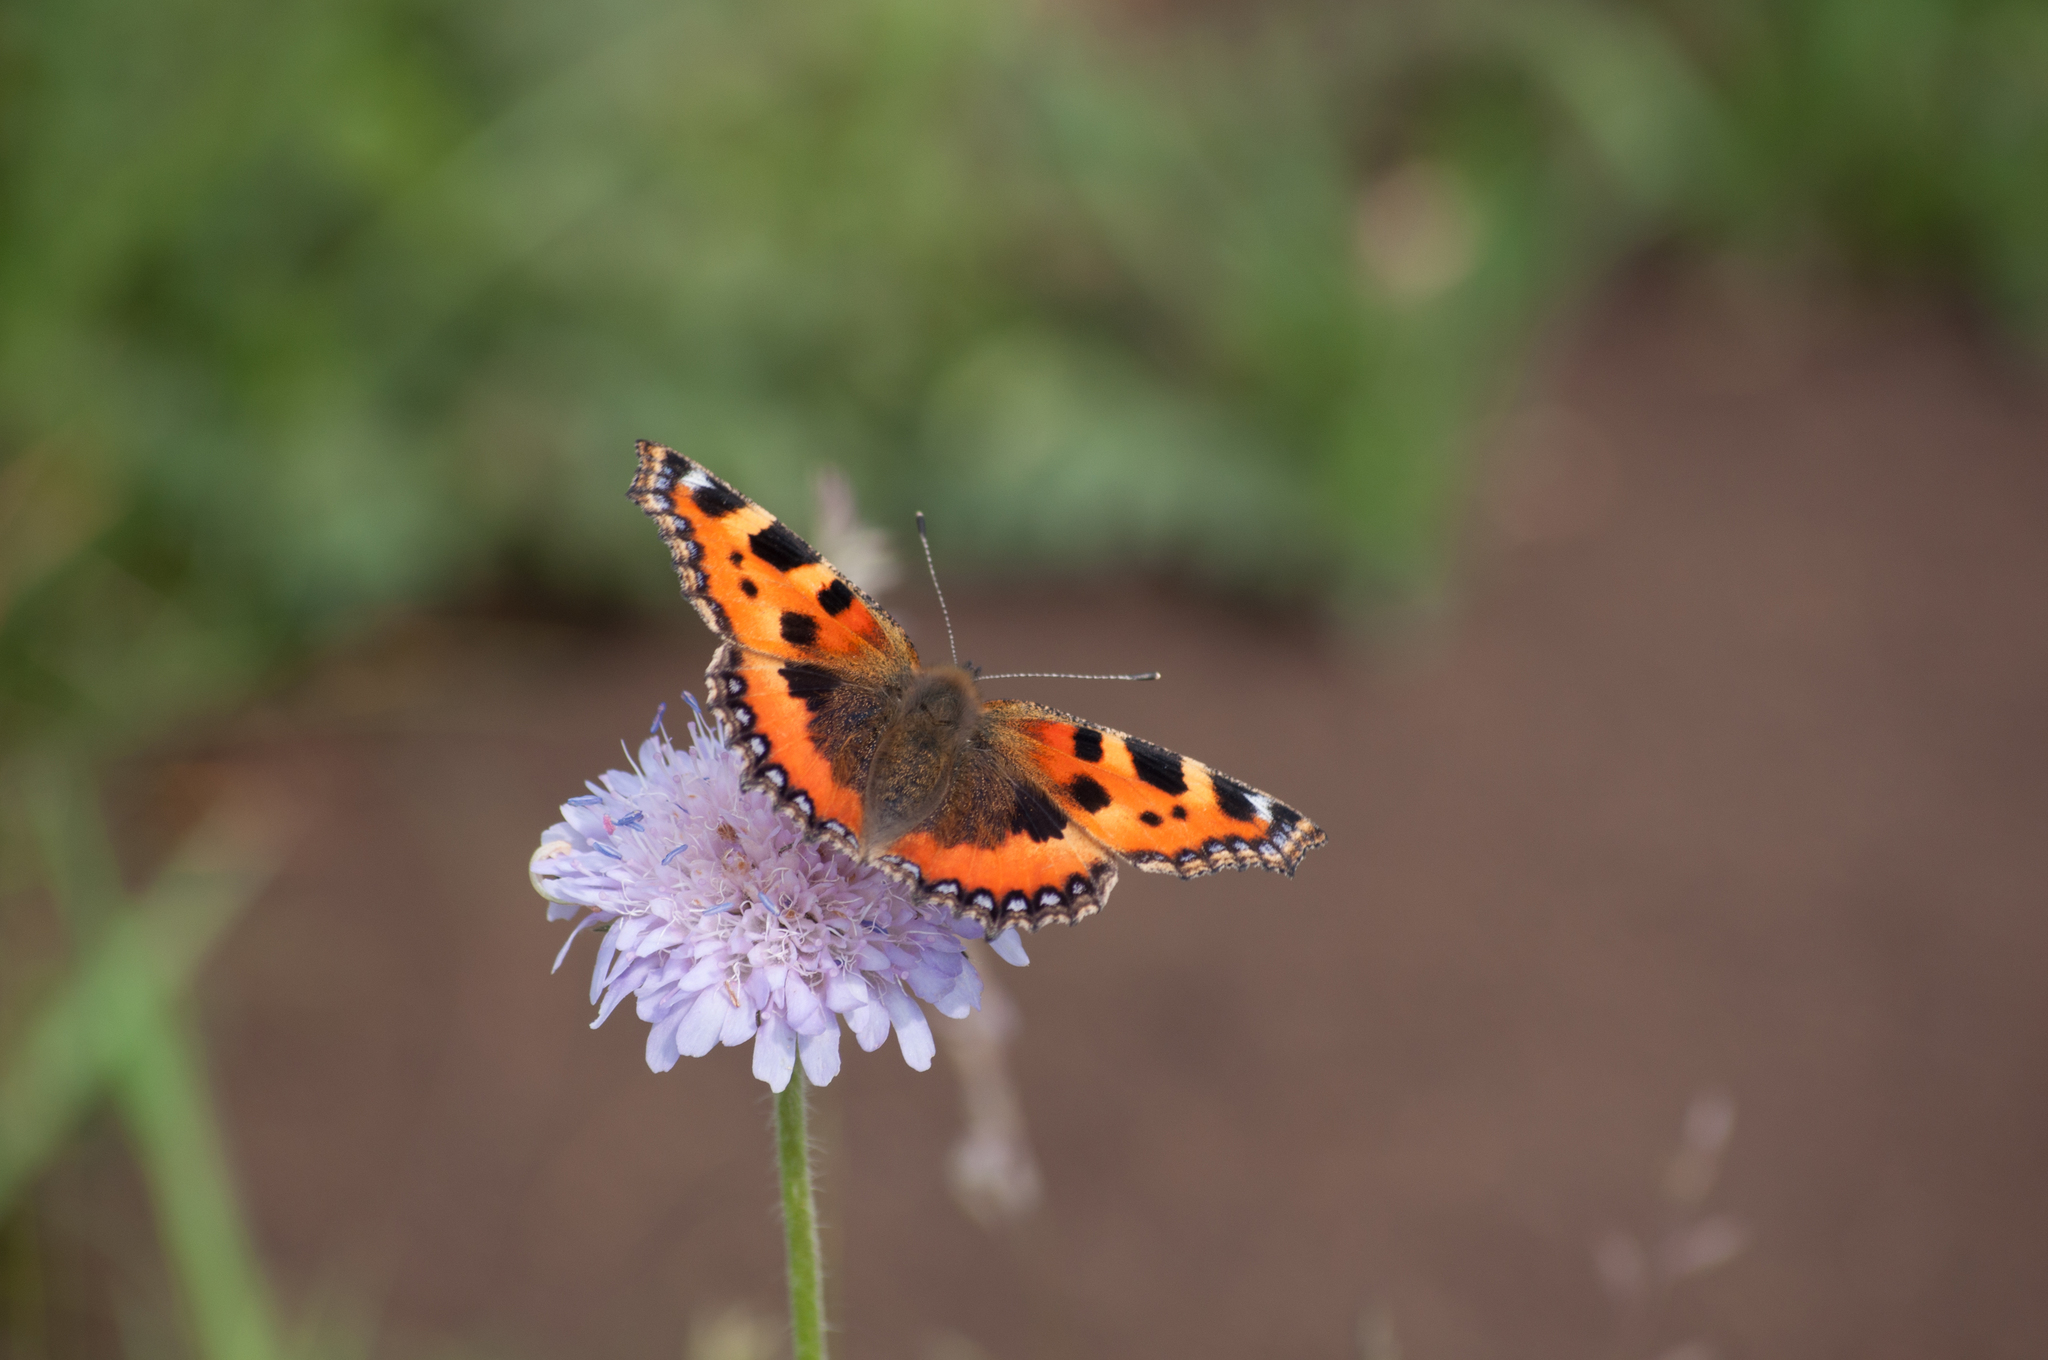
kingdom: Animalia
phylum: Arthropoda
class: Insecta
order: Lepidoptera
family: Nymphalidae
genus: Aglais
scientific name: Aglais urticae
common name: Small tortoiseshell
